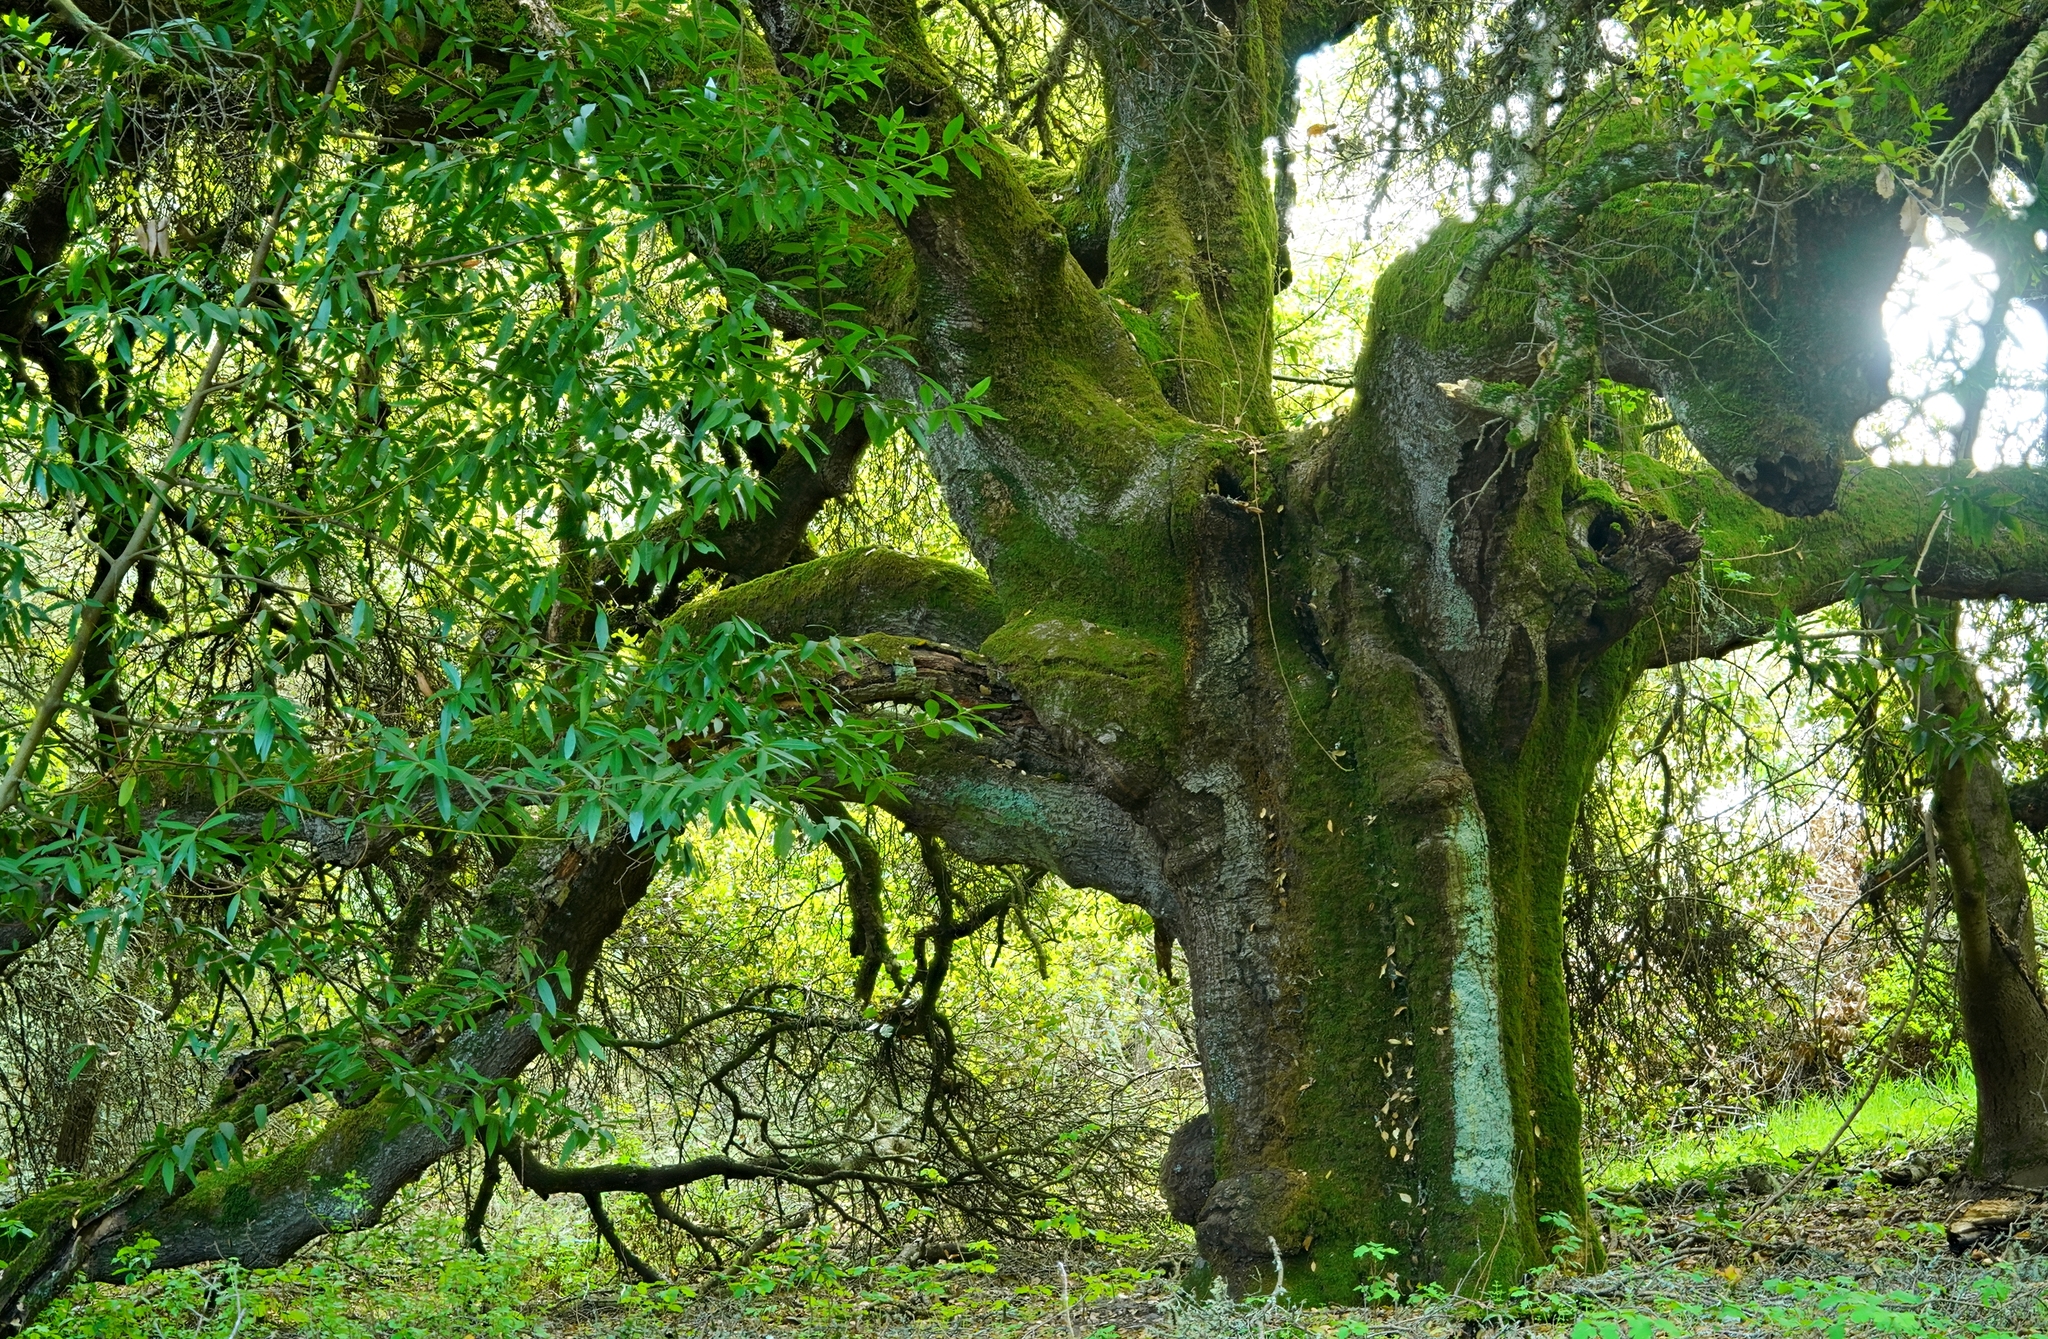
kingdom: Plantae
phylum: Tracheophyta
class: Magnoliopsida
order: Fagales
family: Fagaceae
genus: Quercus
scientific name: Quercus agrifolia
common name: California live oak
